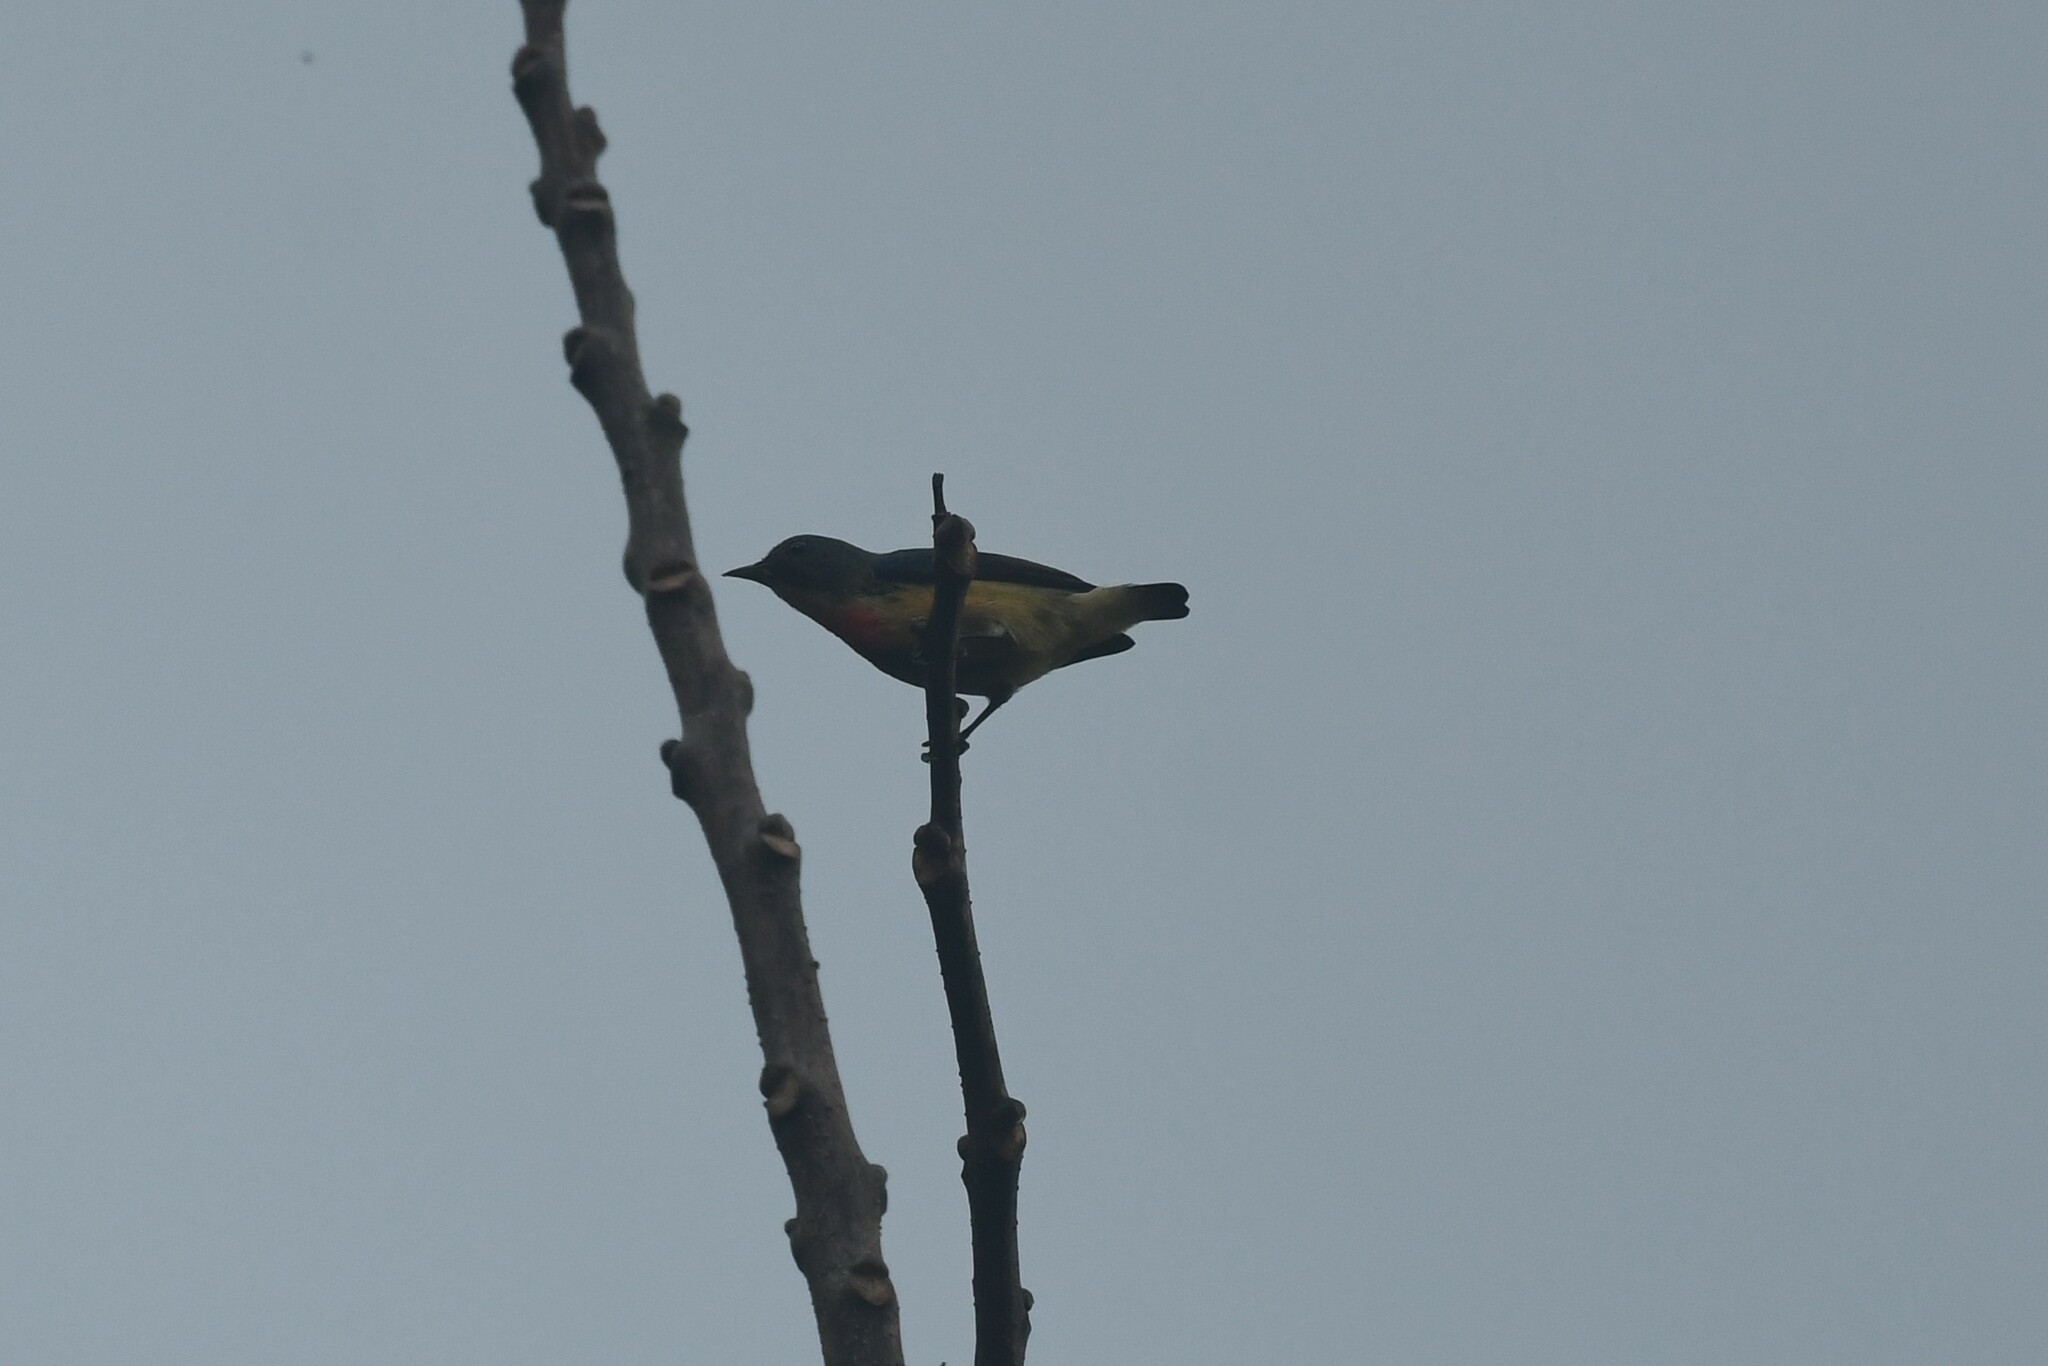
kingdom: Animalia
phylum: Chordata
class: Aves
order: Passeriformes
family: Dicaeidae
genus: Dicaeum
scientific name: Dicaeum ignipectus
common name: Fire-breasted flowerpecker
